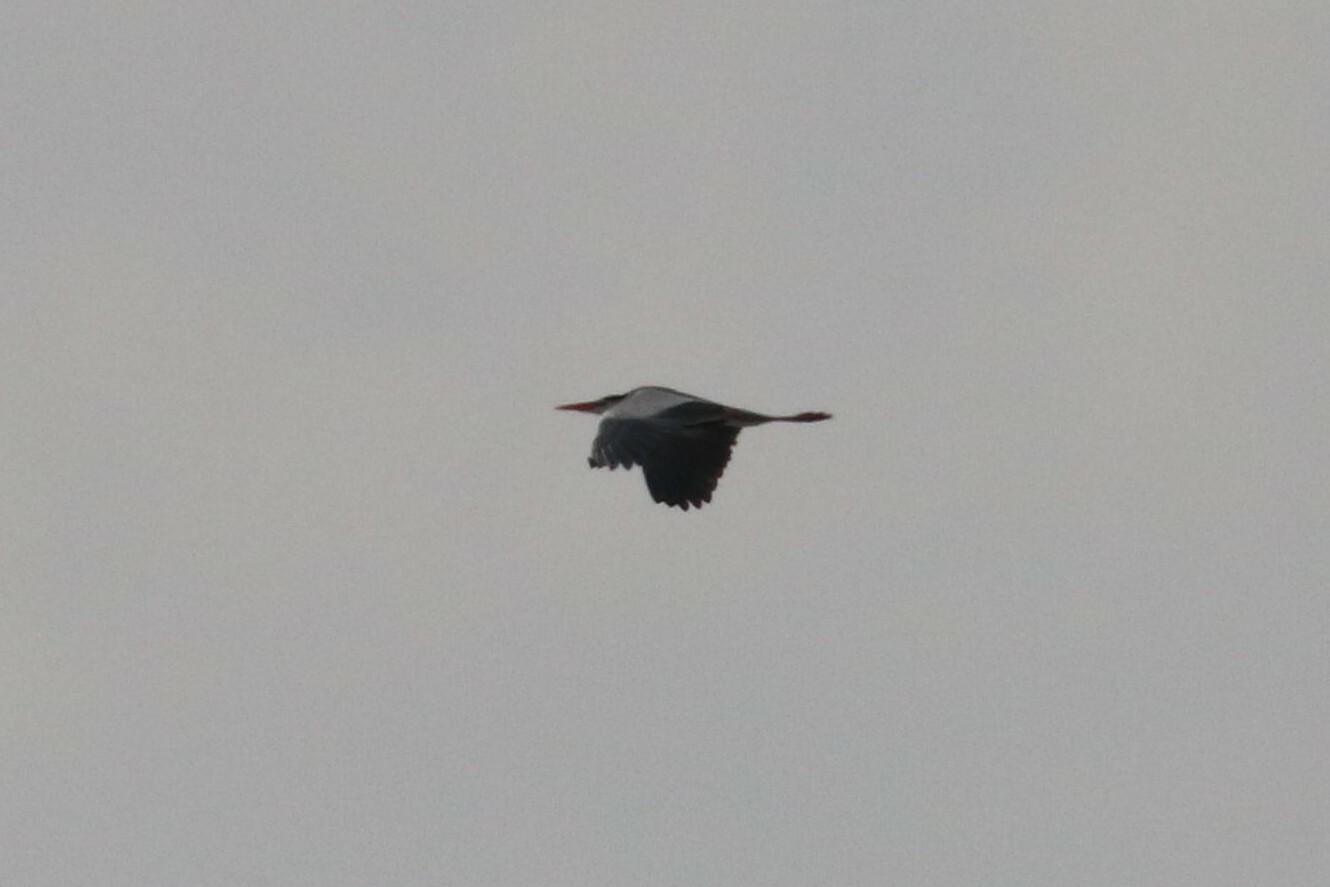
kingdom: Animalia
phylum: Chordata
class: Aves
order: Pelecaniformes
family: Ardeidae
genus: Ardea
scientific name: Ardea cinerea
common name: Grey heron
